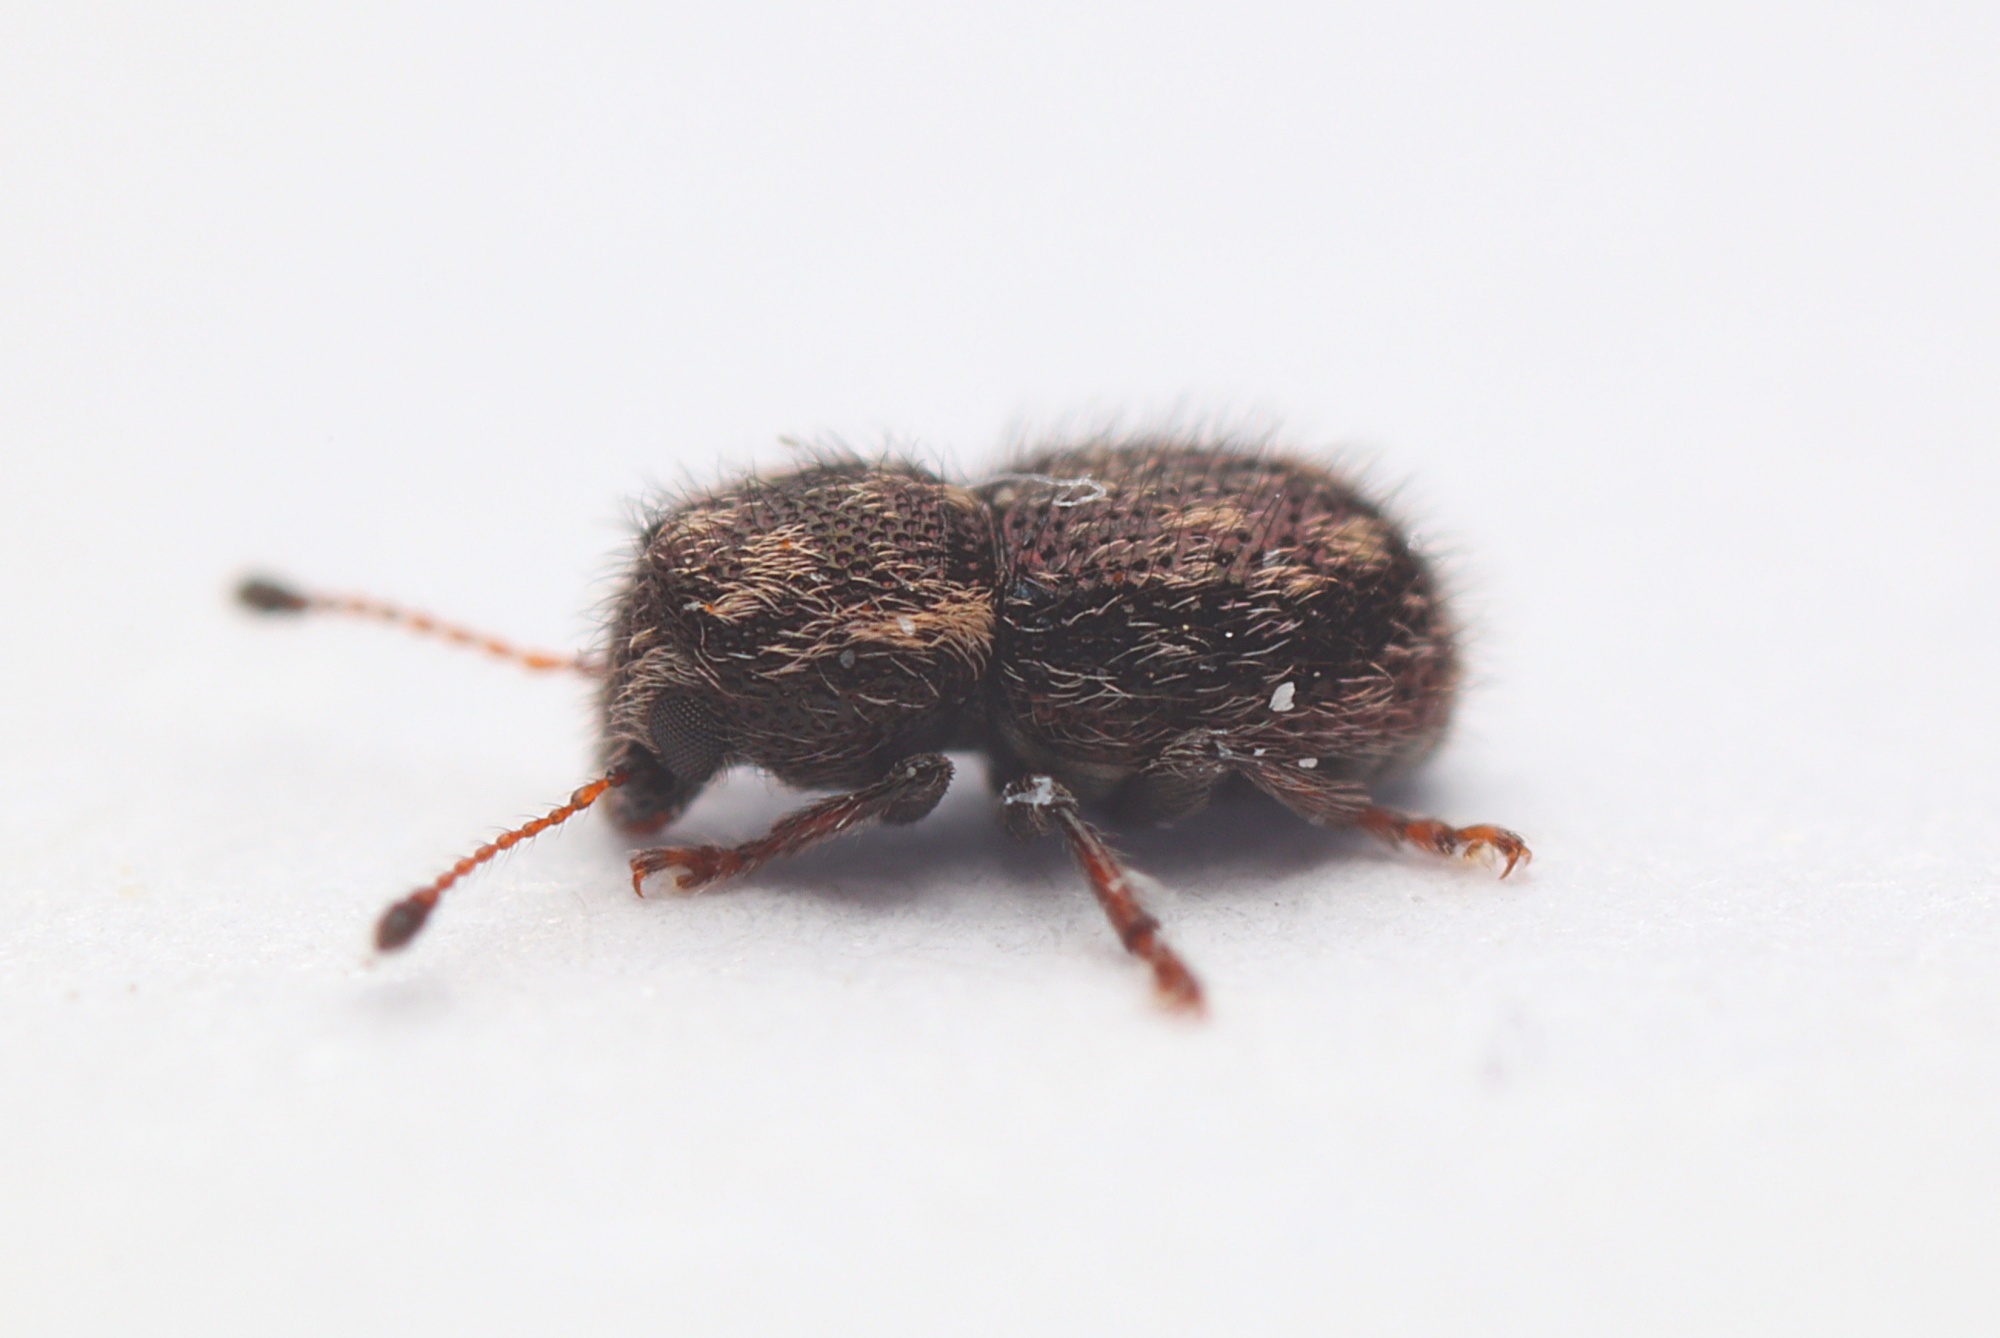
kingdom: Animalia
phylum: Arthropoda
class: Insecta
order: Coleoptera
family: Anthribidae
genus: Dasyanthribus
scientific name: Dasyanthribus purpureus
